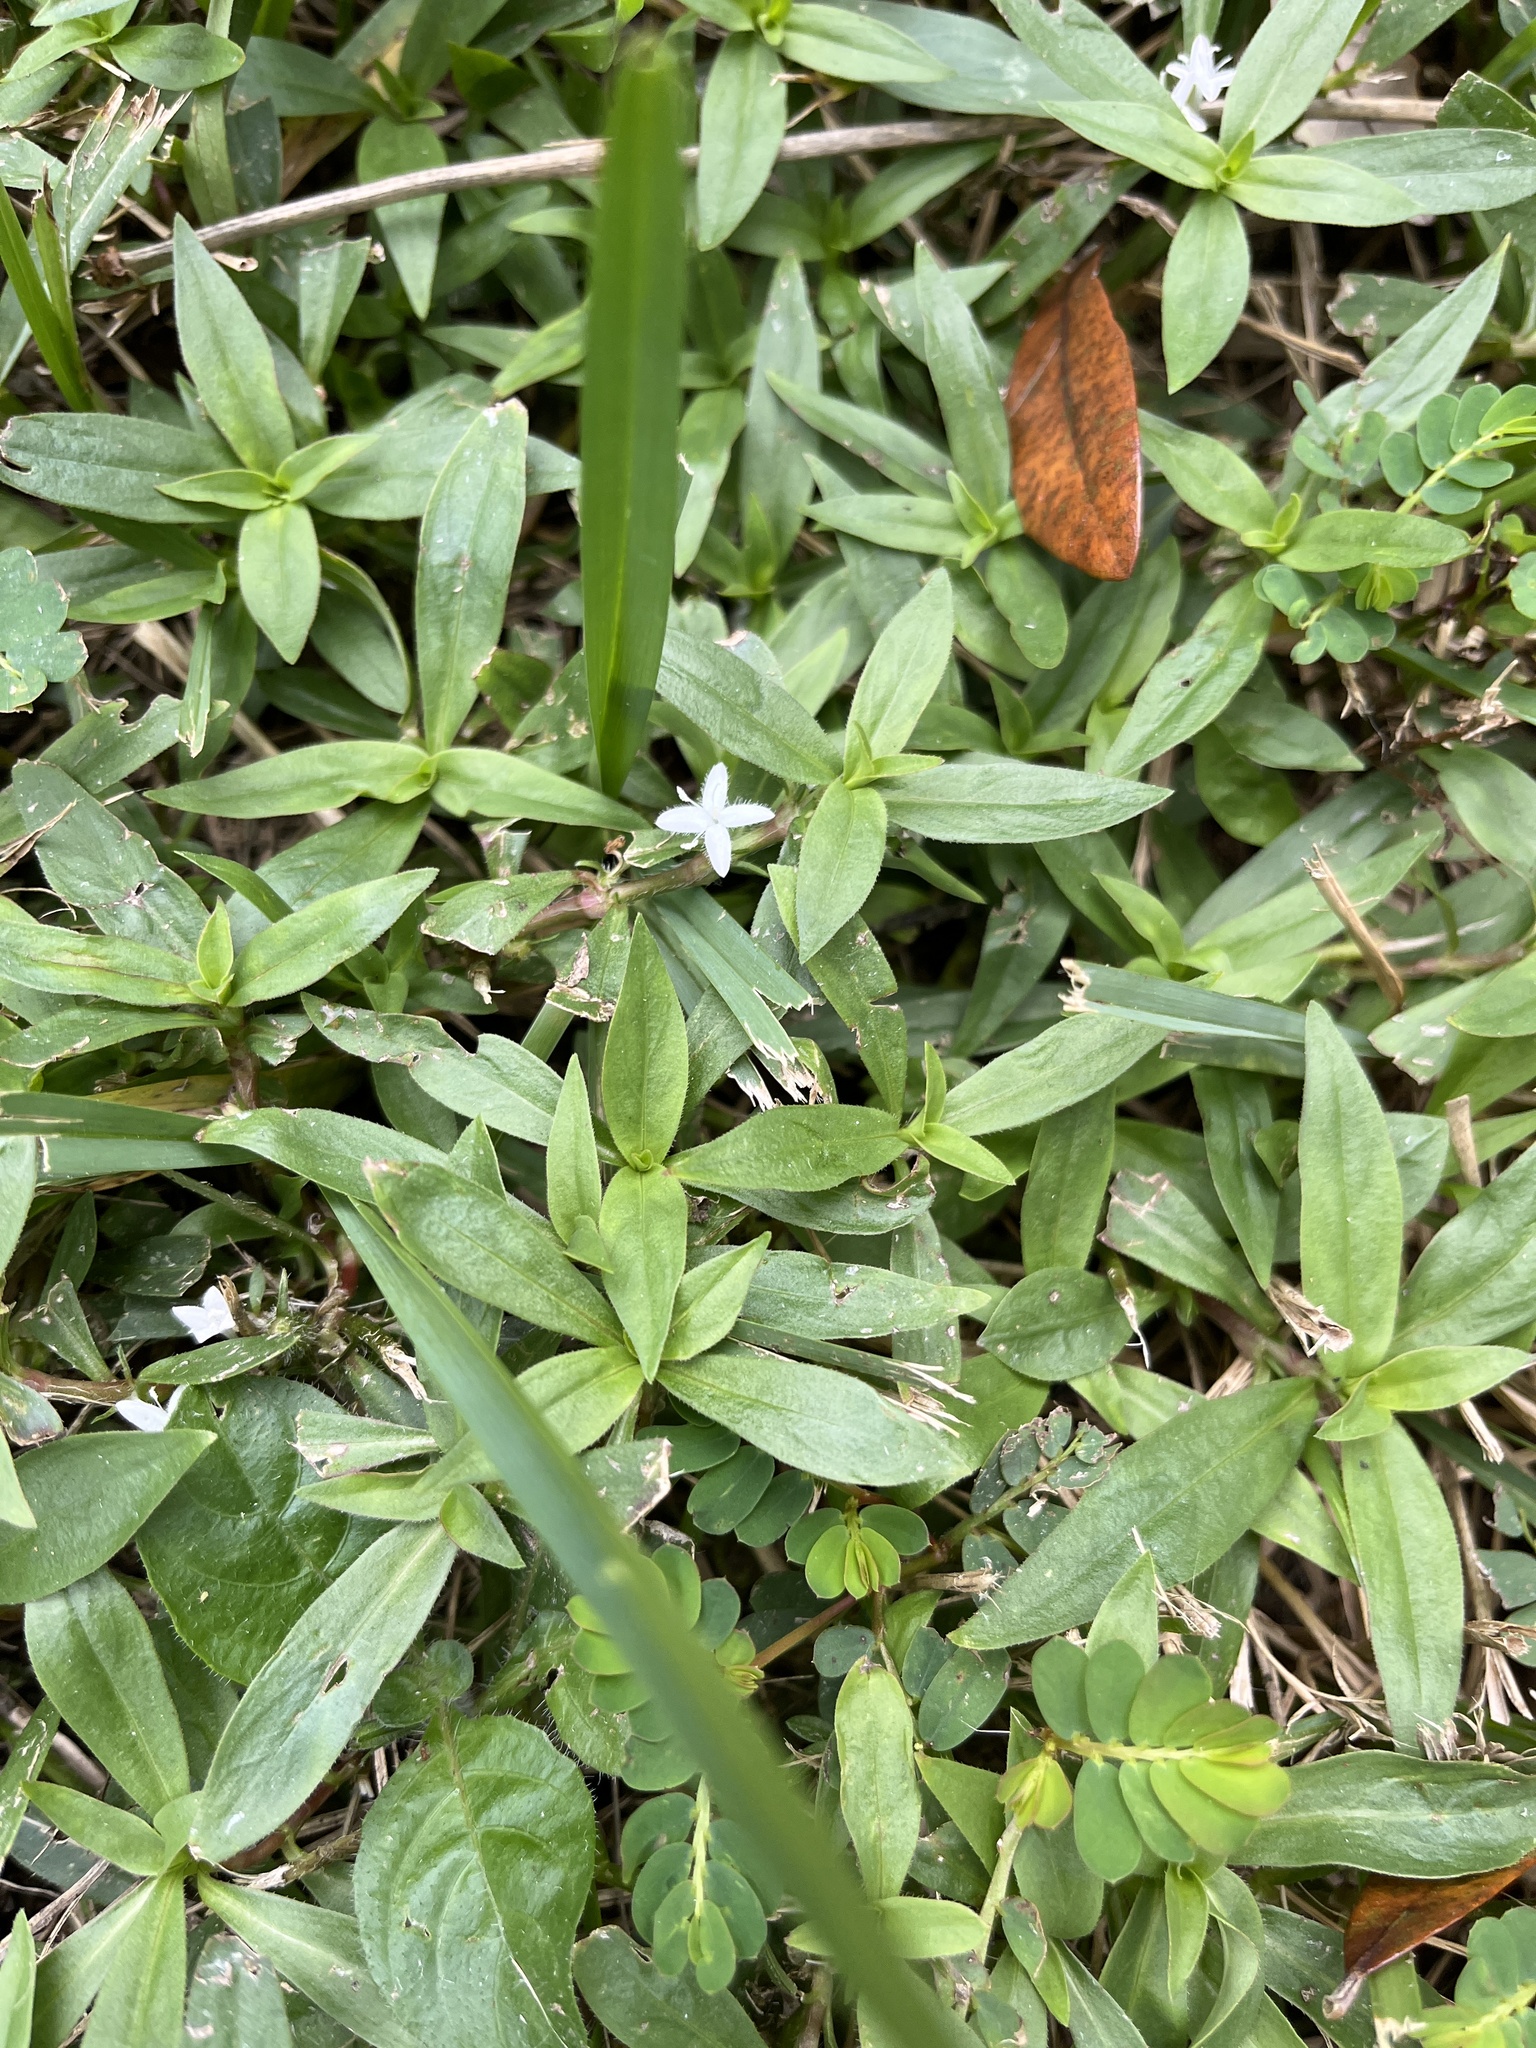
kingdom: Plantae
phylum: Tracheophyta
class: Magnoliopsida
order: Gentianales
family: Rubiaceae
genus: Diodia
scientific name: Diodia virginiana
